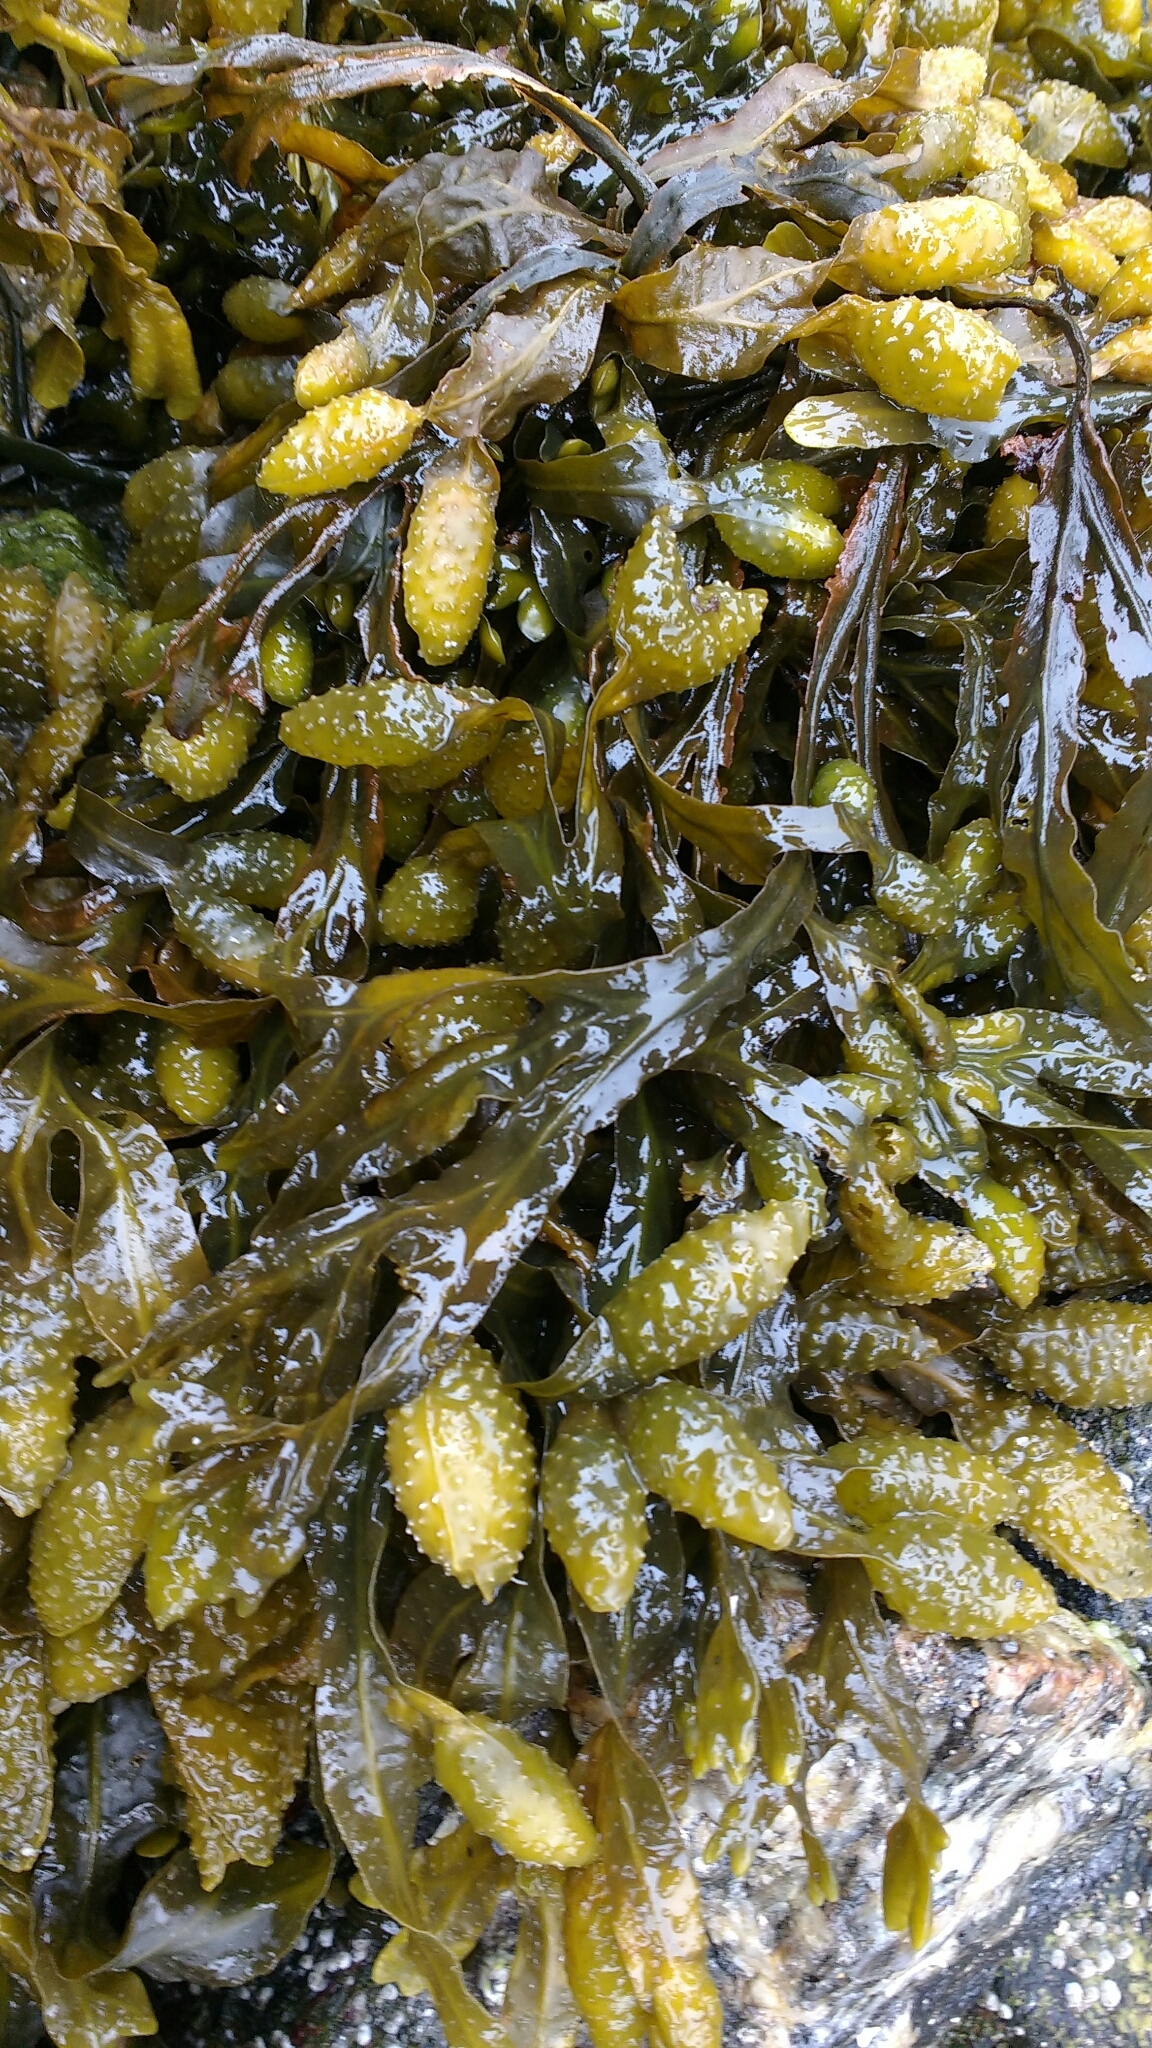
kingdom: Chromista
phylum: Ochrophyta
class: Phaeophyceae
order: Fucales
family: Fucaceae
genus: Fucus
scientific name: Fucus vesiculosus
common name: Bladder wrack
